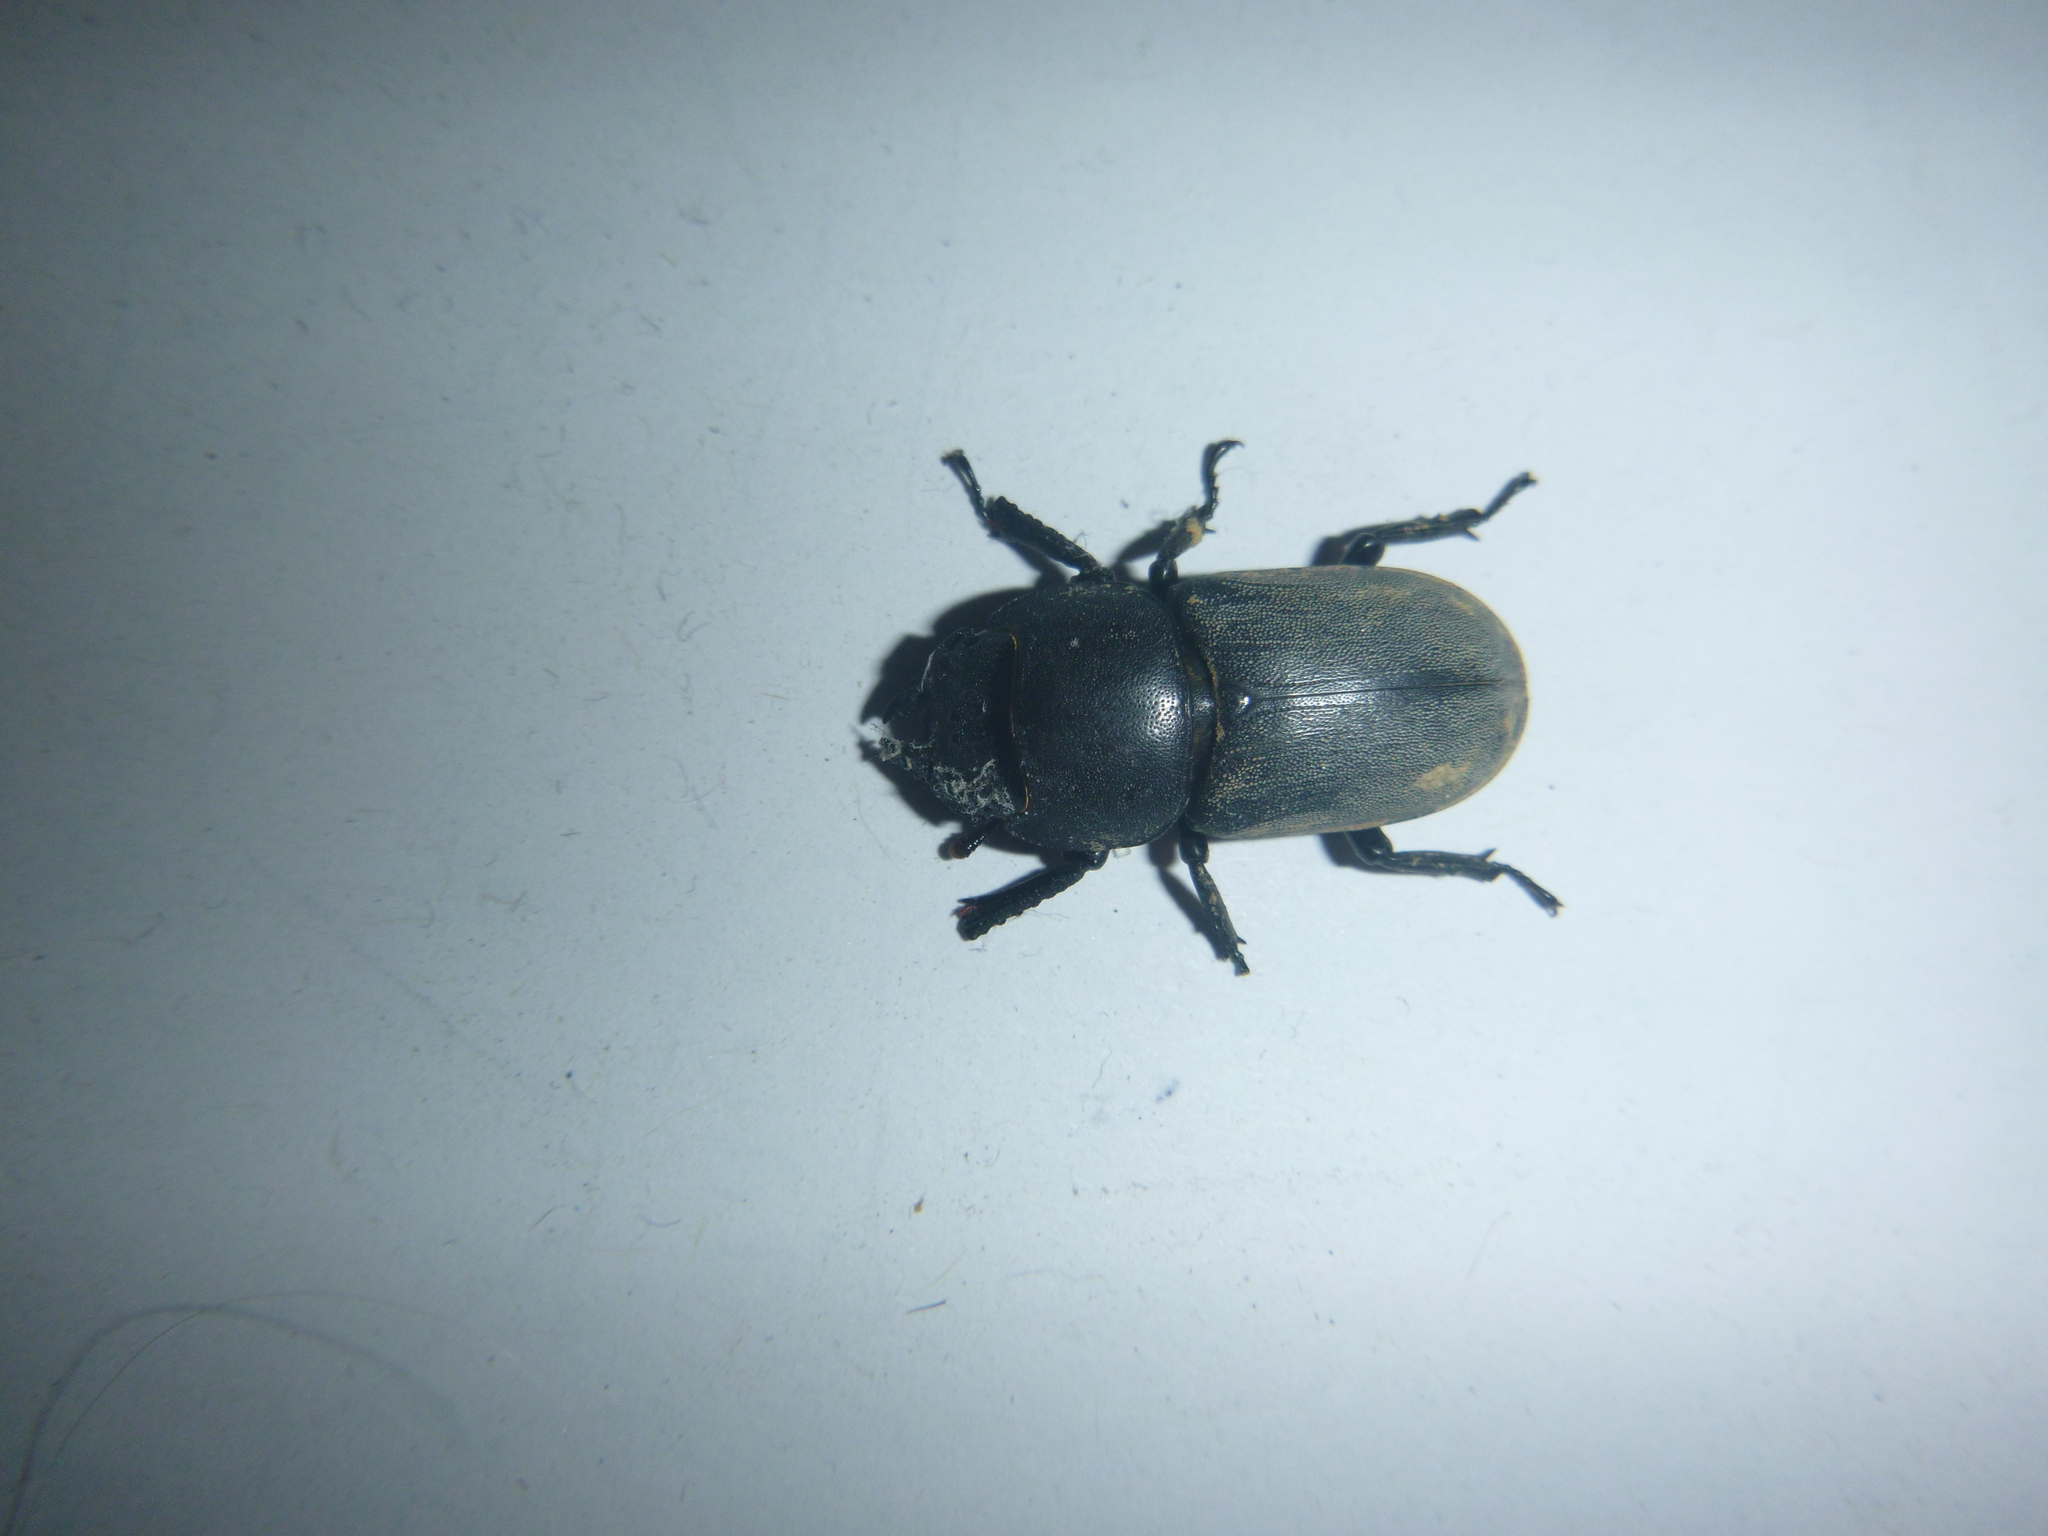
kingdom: Animalia
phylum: Arthropoda
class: Insecta
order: Coleoptera
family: Lucanidae
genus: Dorcus
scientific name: Dorcus parallelipipedus
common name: Lesser stag beetle
